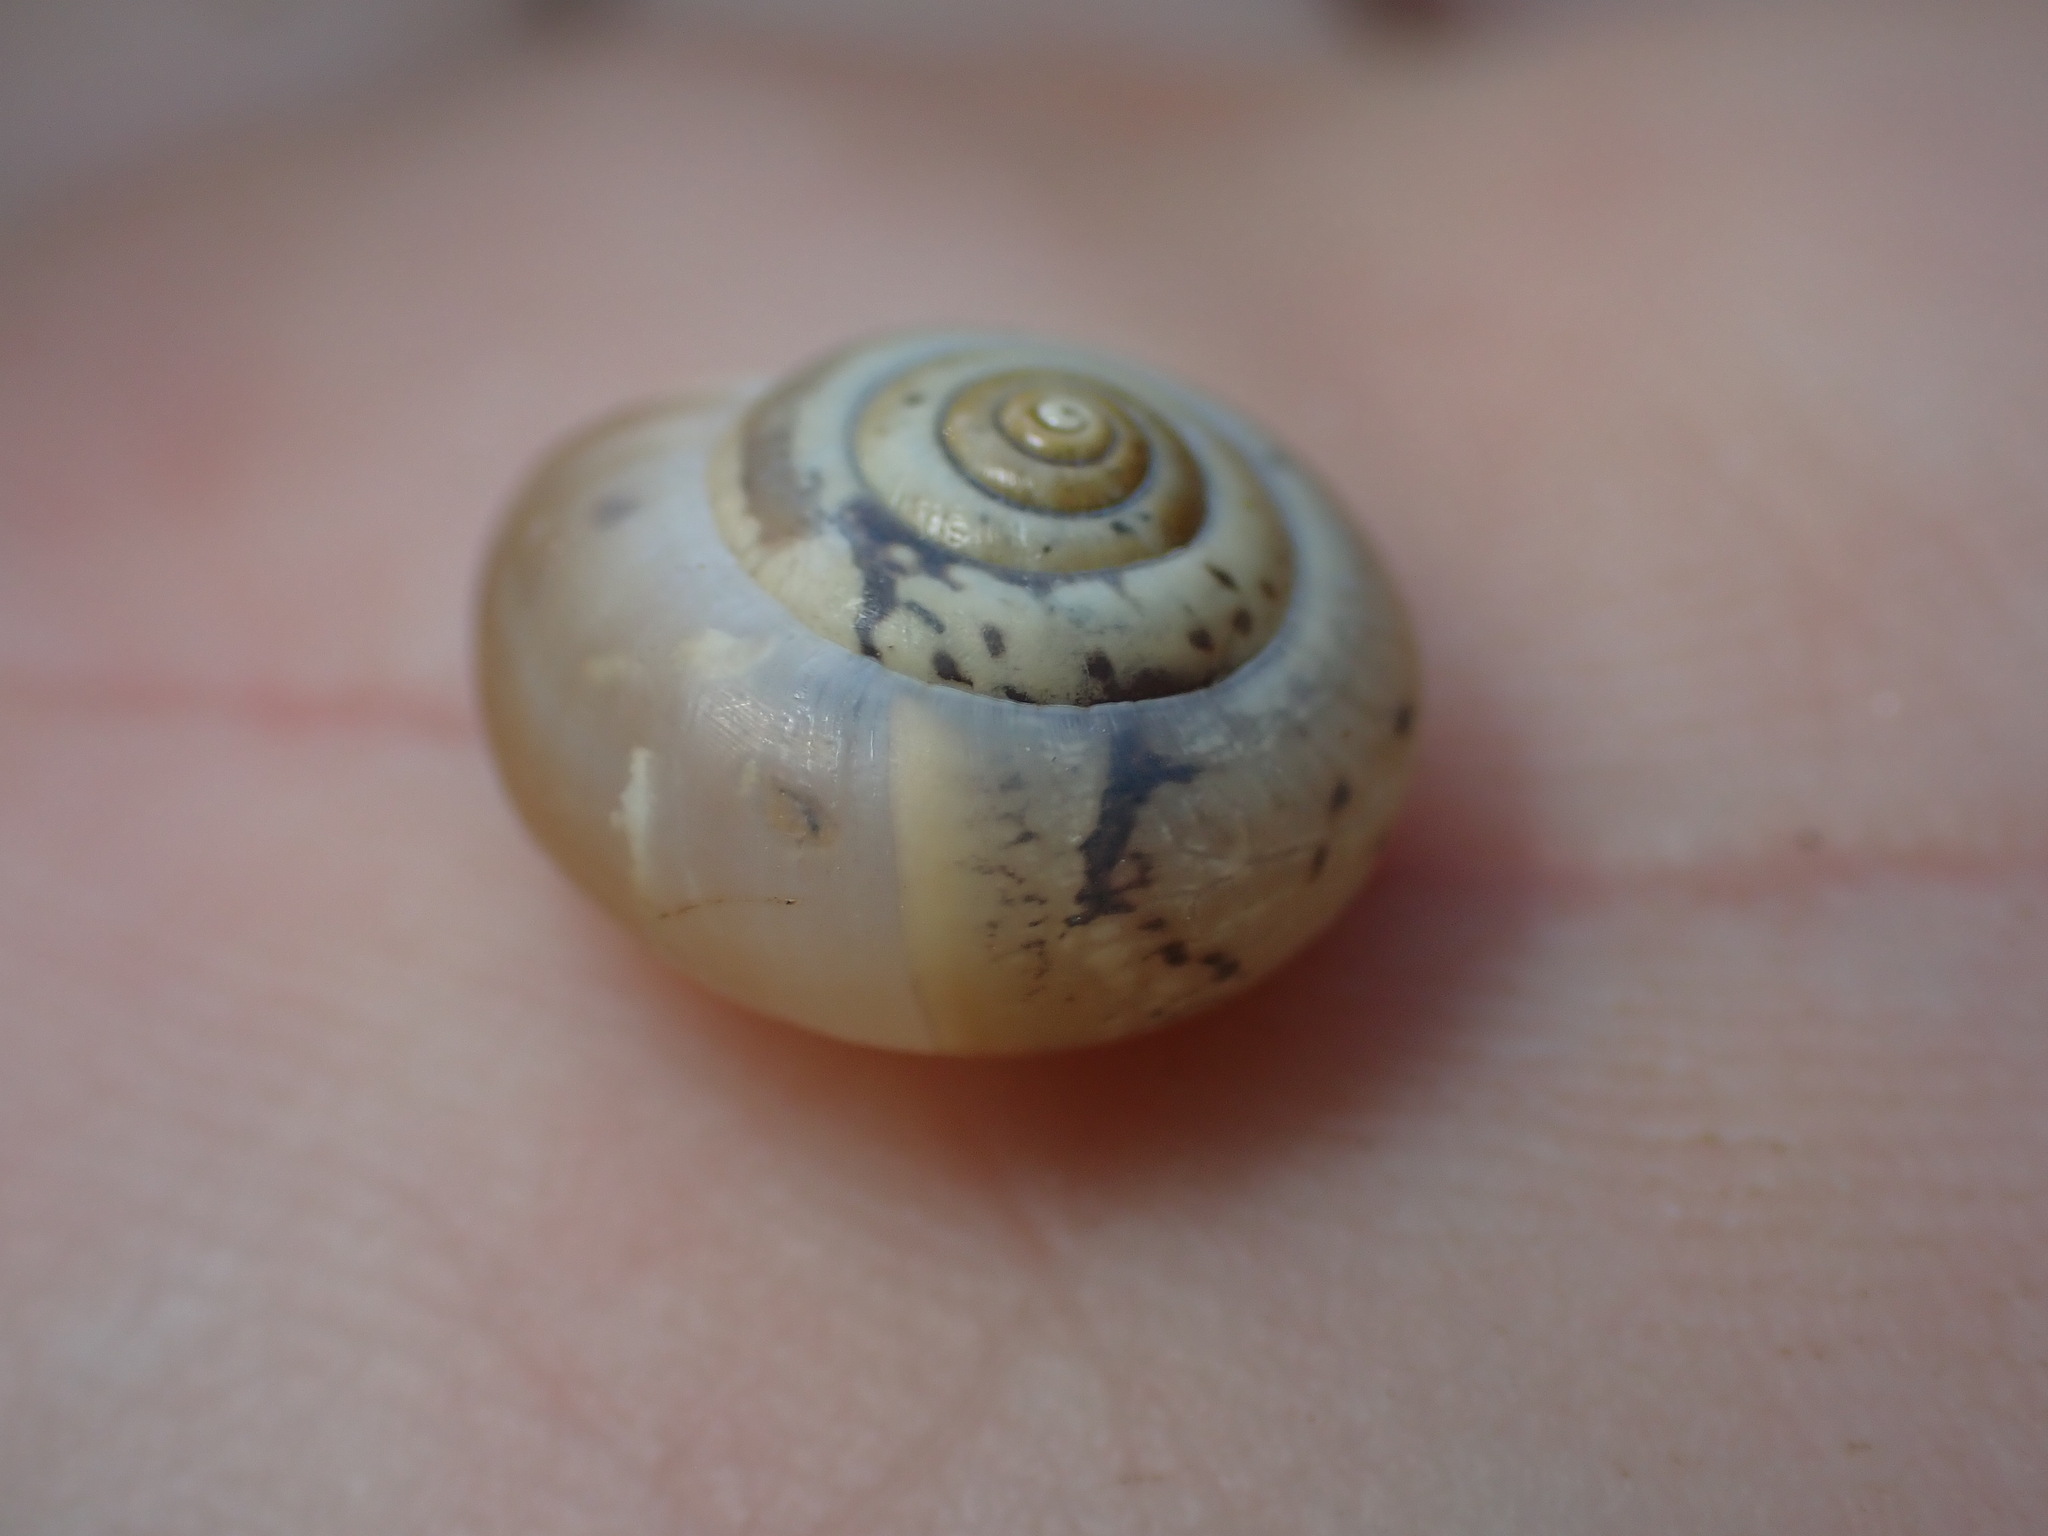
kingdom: Animalia
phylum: Mollusca
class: Gastropoda
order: Stylommatophora
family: Hygromiidae
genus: Monacha
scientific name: Monacha cartusiana
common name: Carthusian snail
